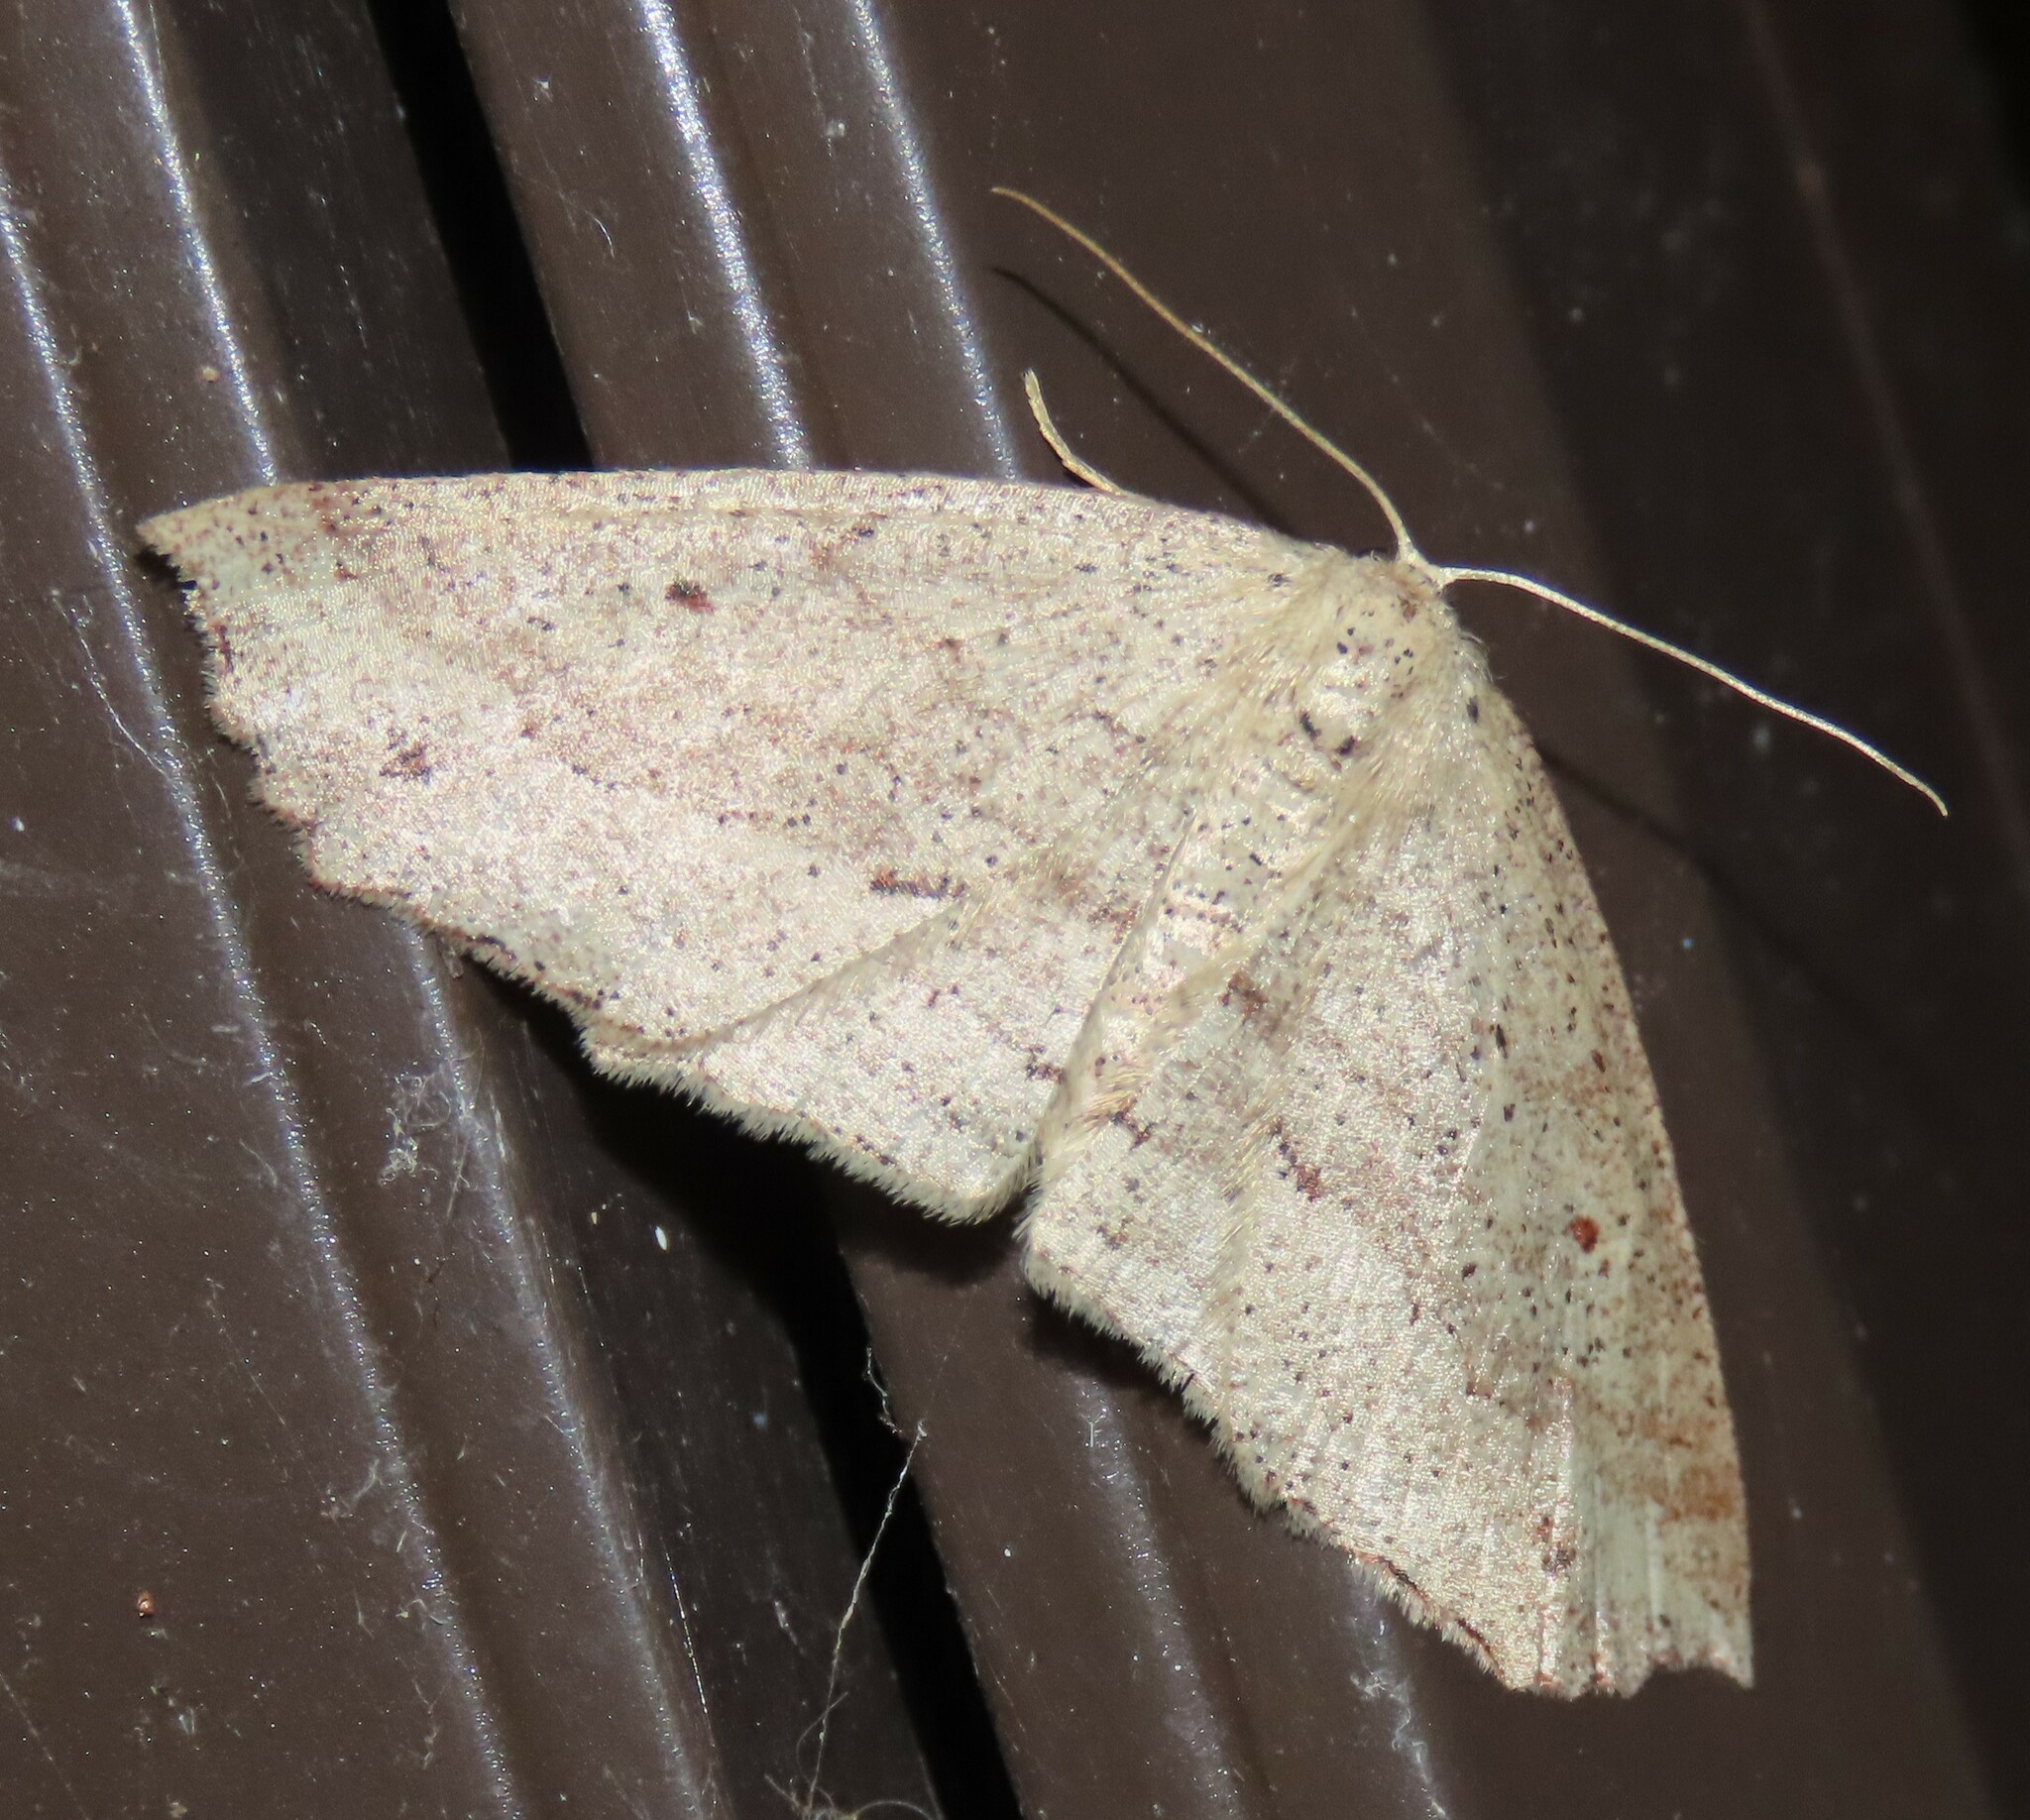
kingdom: Animalia
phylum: Arthropoda
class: Insecta
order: Lepidoptera
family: Geometridae
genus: Xyridacma
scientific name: Xyridacma veronicae
